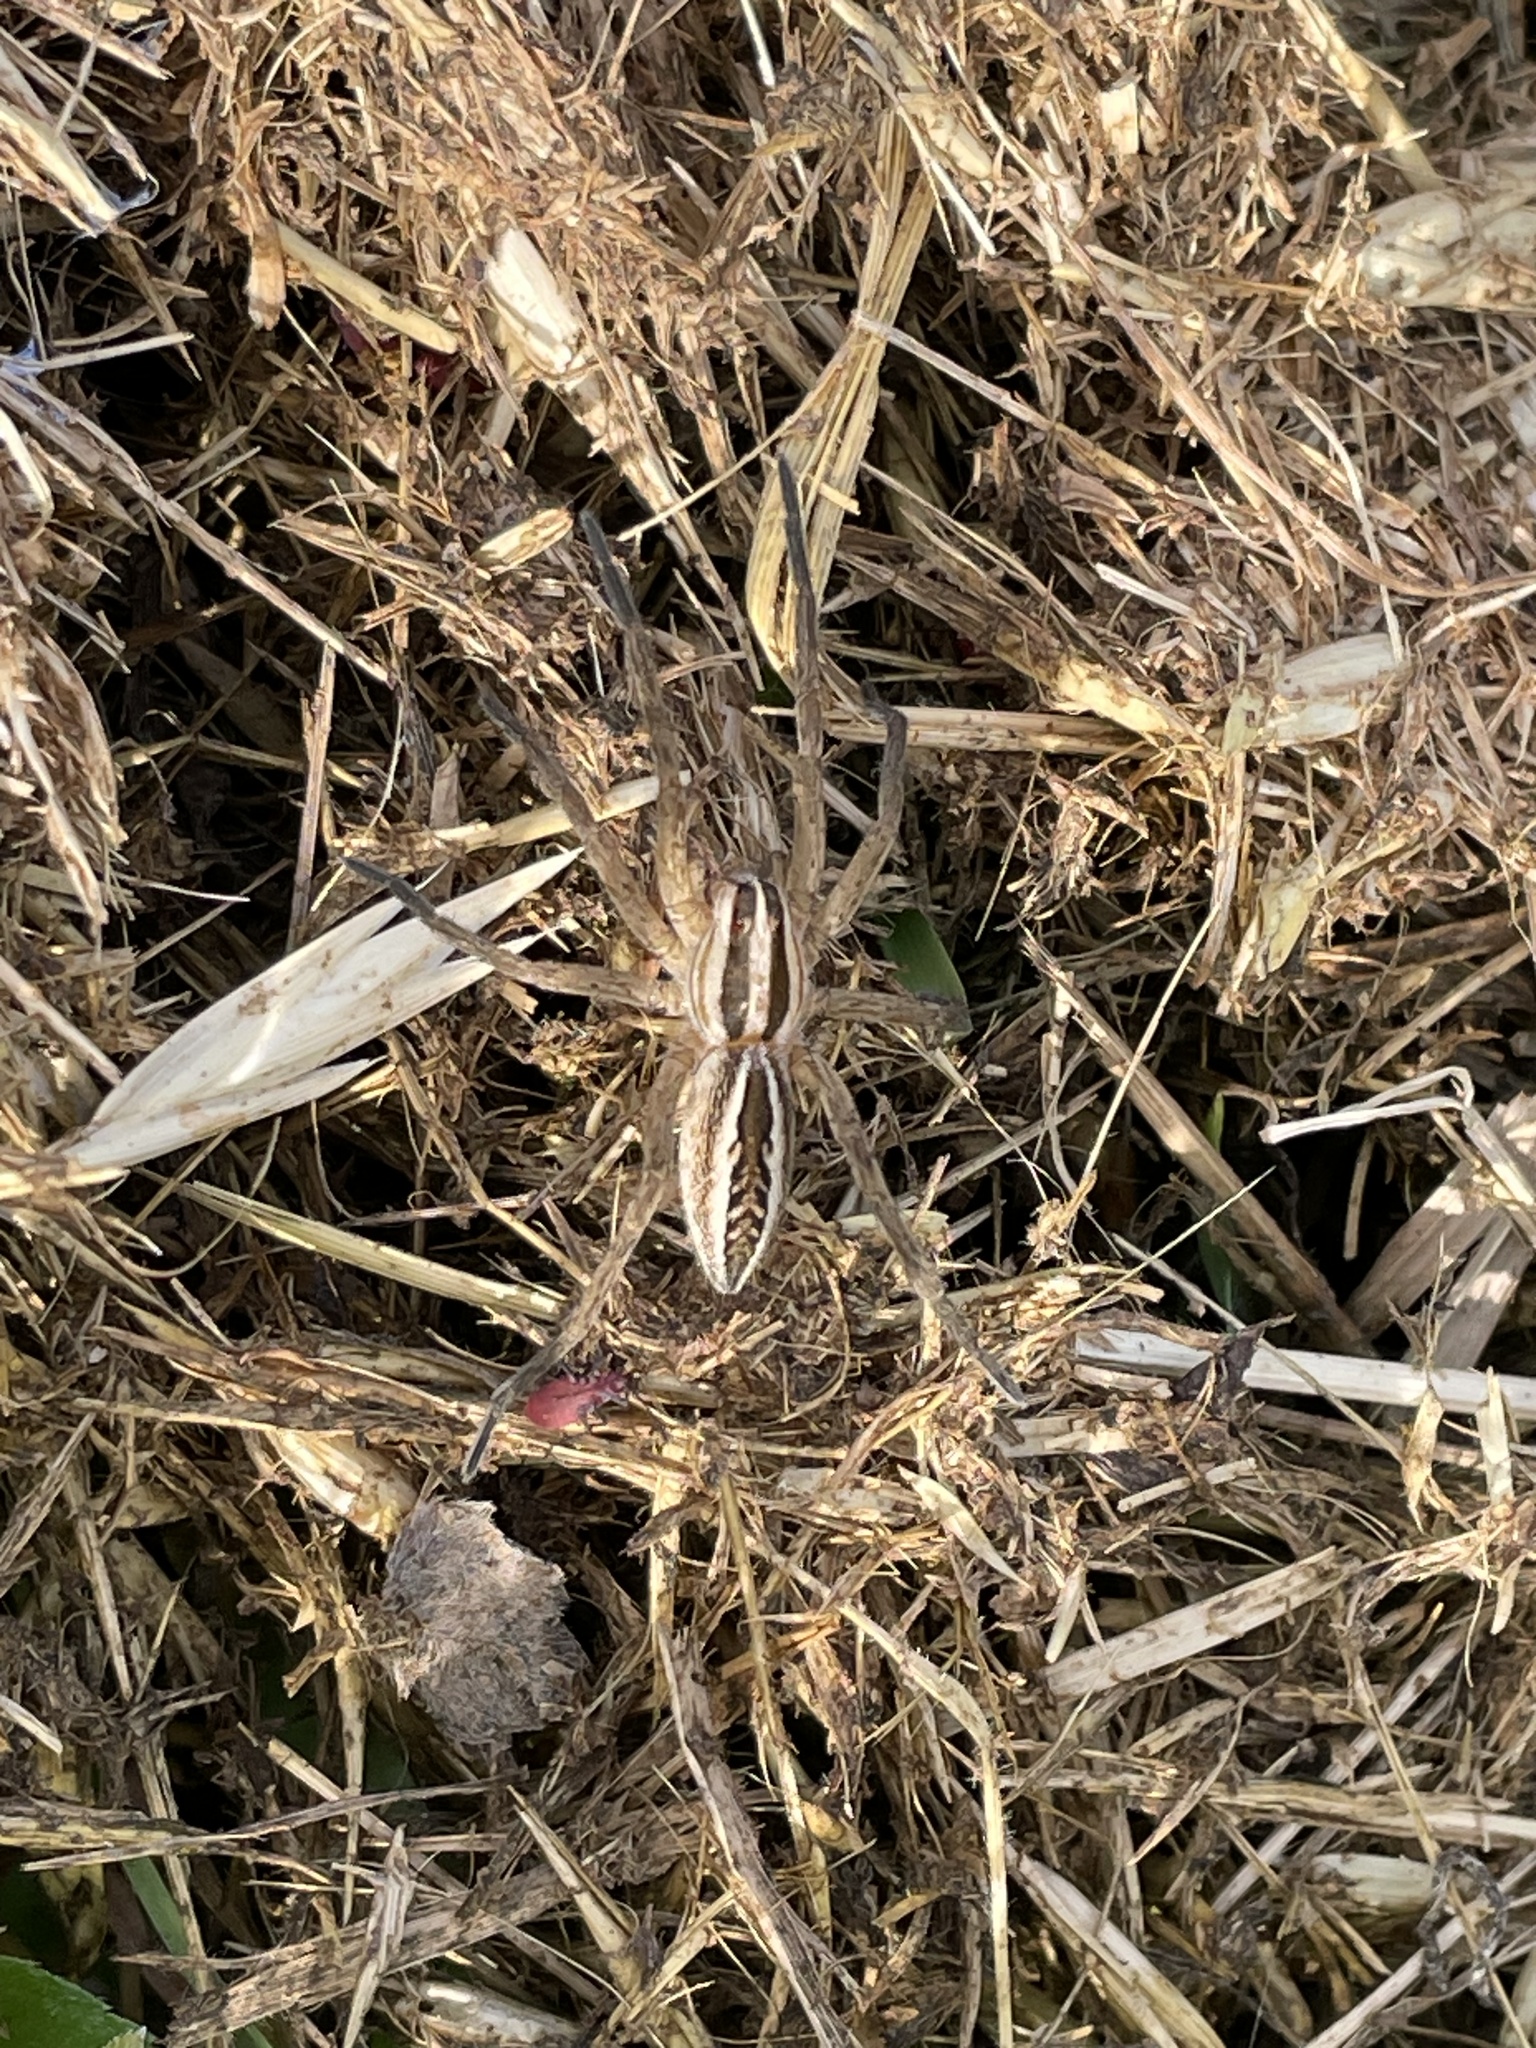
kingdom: Animalia
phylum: Arthropoda
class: Arachnida
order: Araneae
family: Lycosidae
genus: Rabidosa
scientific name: Rabidosa rabida
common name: Rabid wolf spider
